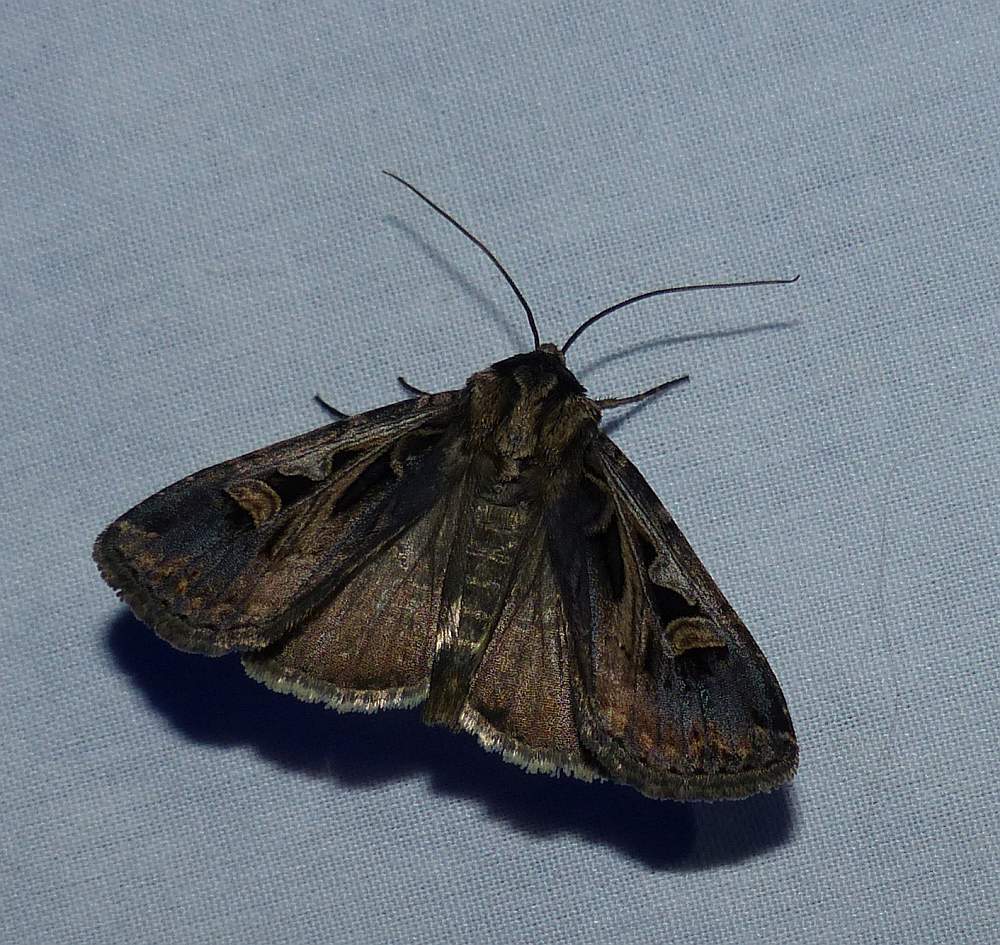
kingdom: Animalia
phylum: Arthropoda
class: Insecta
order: Lepidoptera
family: Noctuidae
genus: Feltia
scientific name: Feltia
